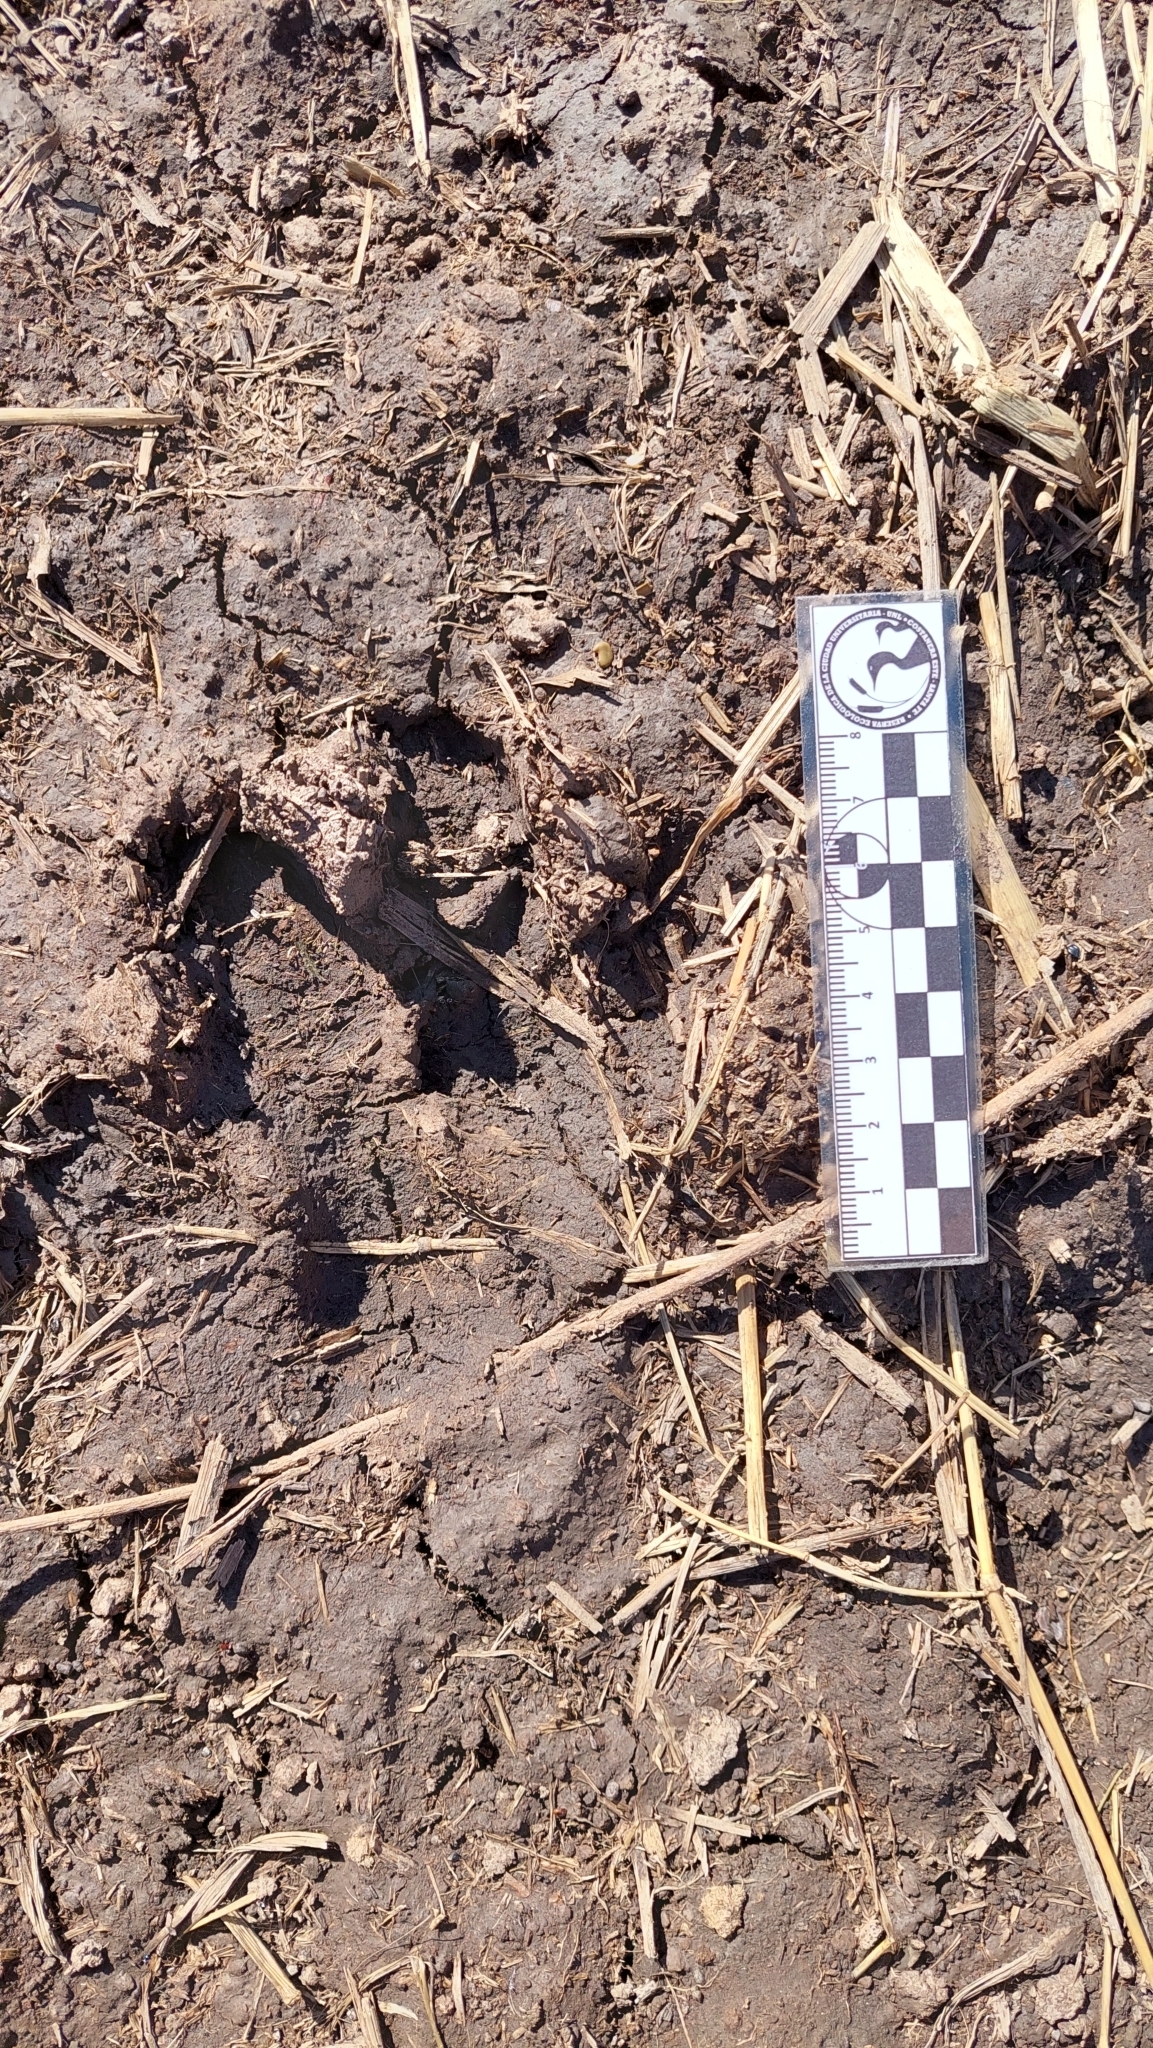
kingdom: Animalia
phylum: Chordata
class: Mammalia
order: Rodentia
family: Caviidae
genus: Hydrochoerus
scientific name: Hydrochoerus hydrochaeris
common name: Capybara
